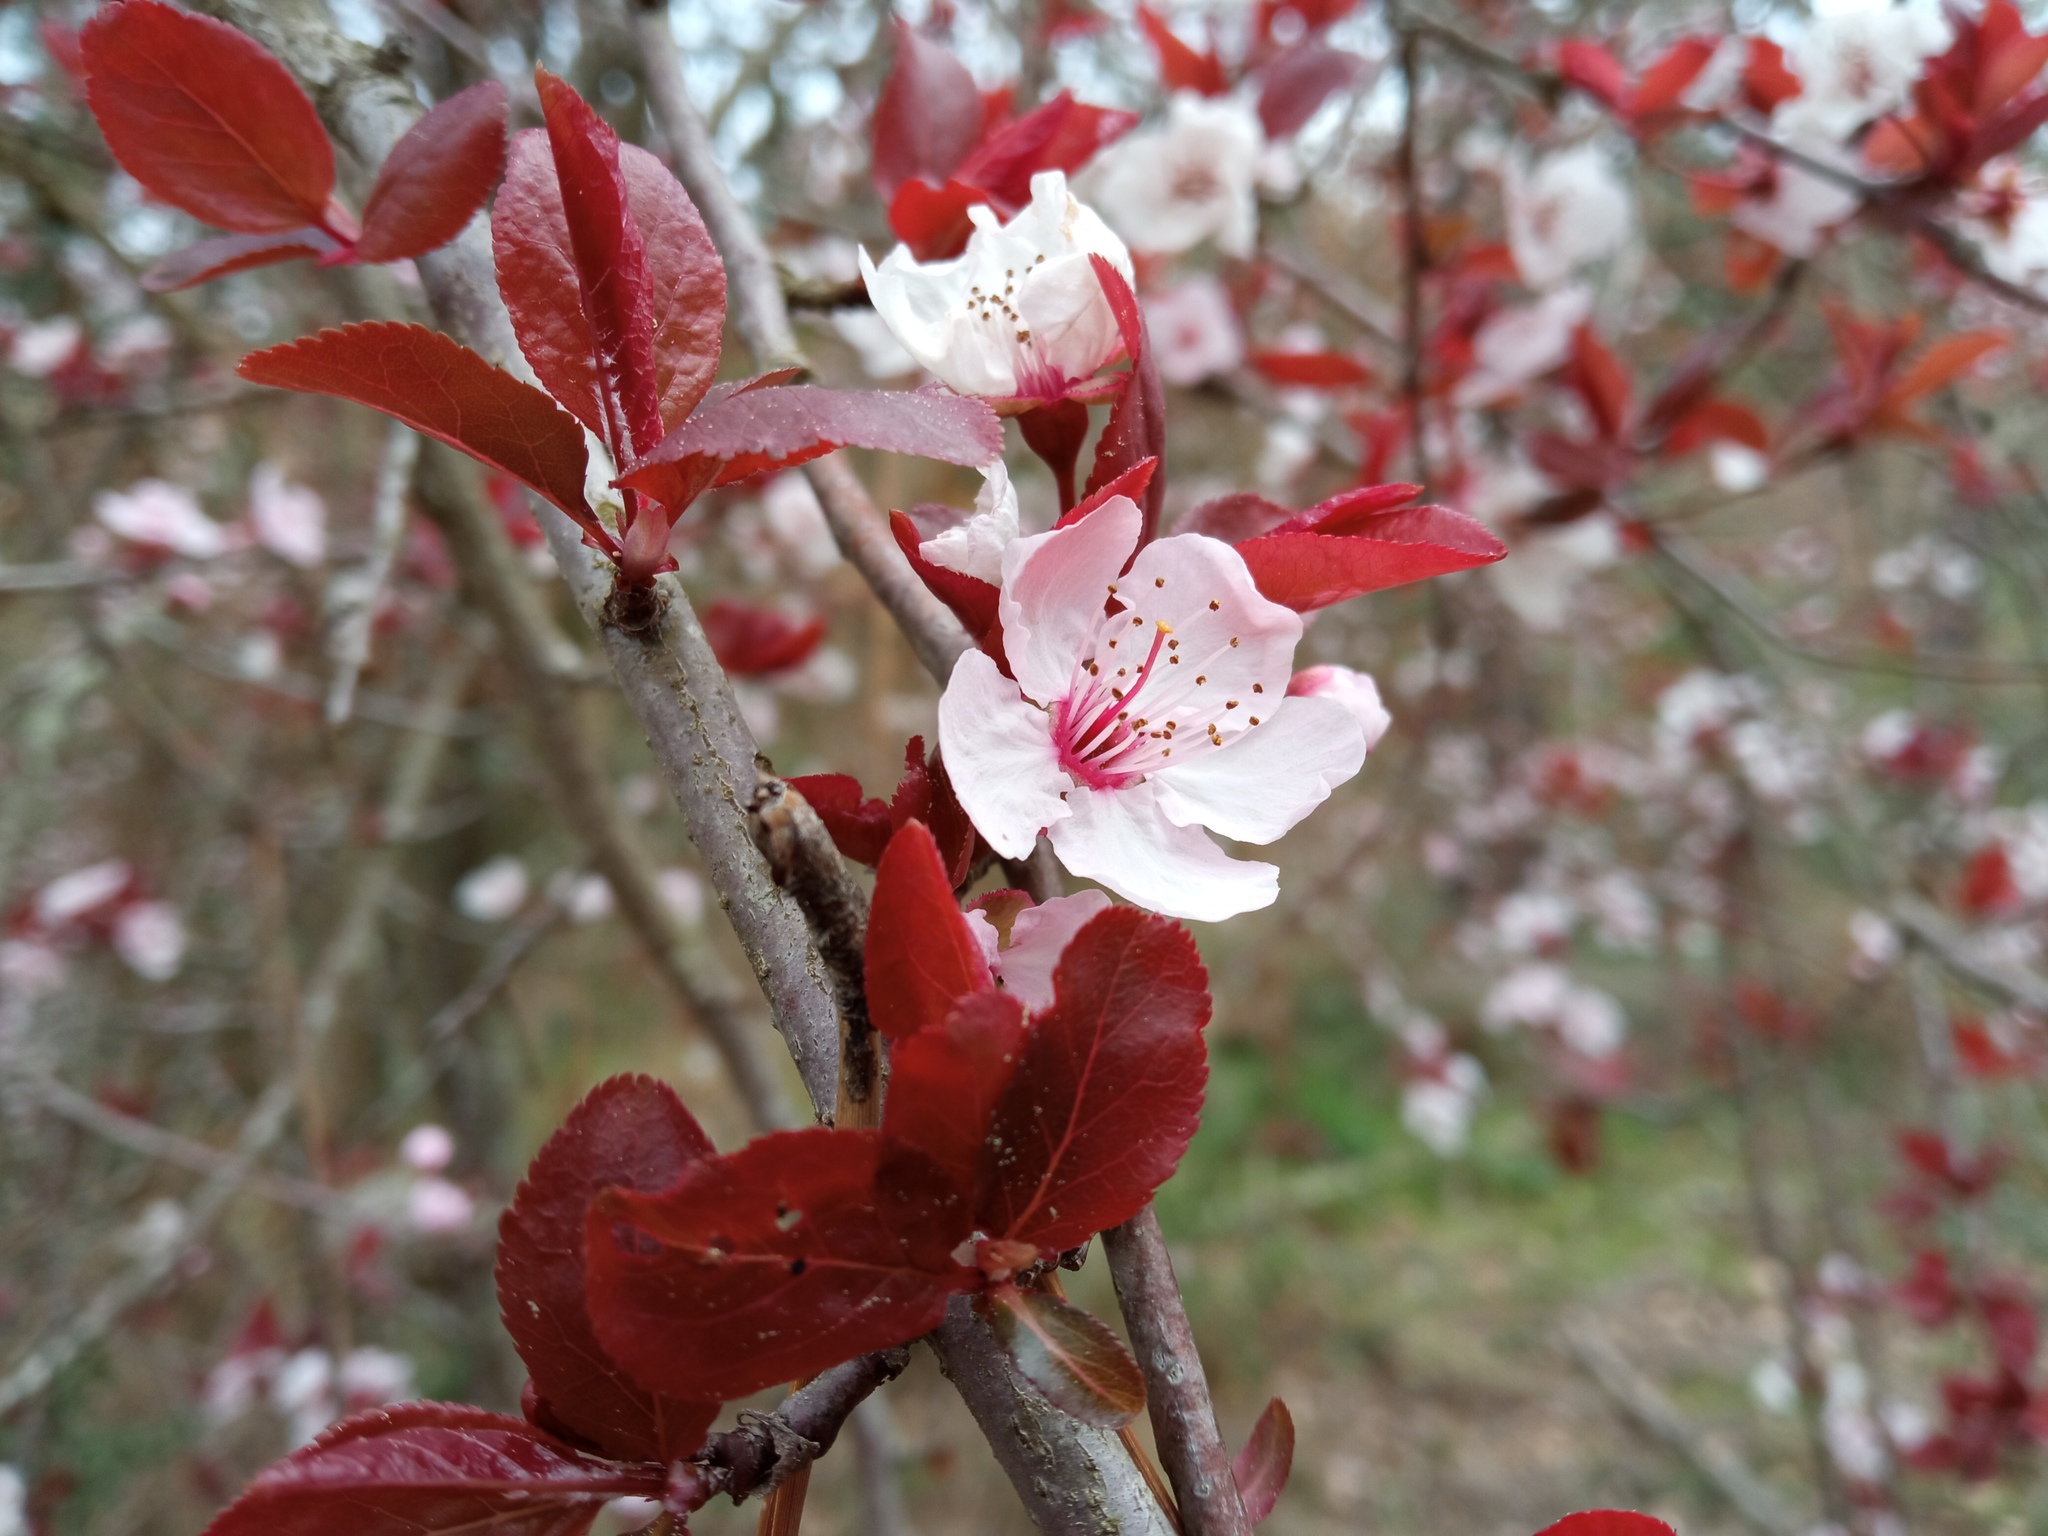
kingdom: Plantae
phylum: Tracheophyta
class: Magnoliopsida
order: Rosales
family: Rosaceae
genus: Prunus
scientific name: Prunus cerasifera
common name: Cherry plum
